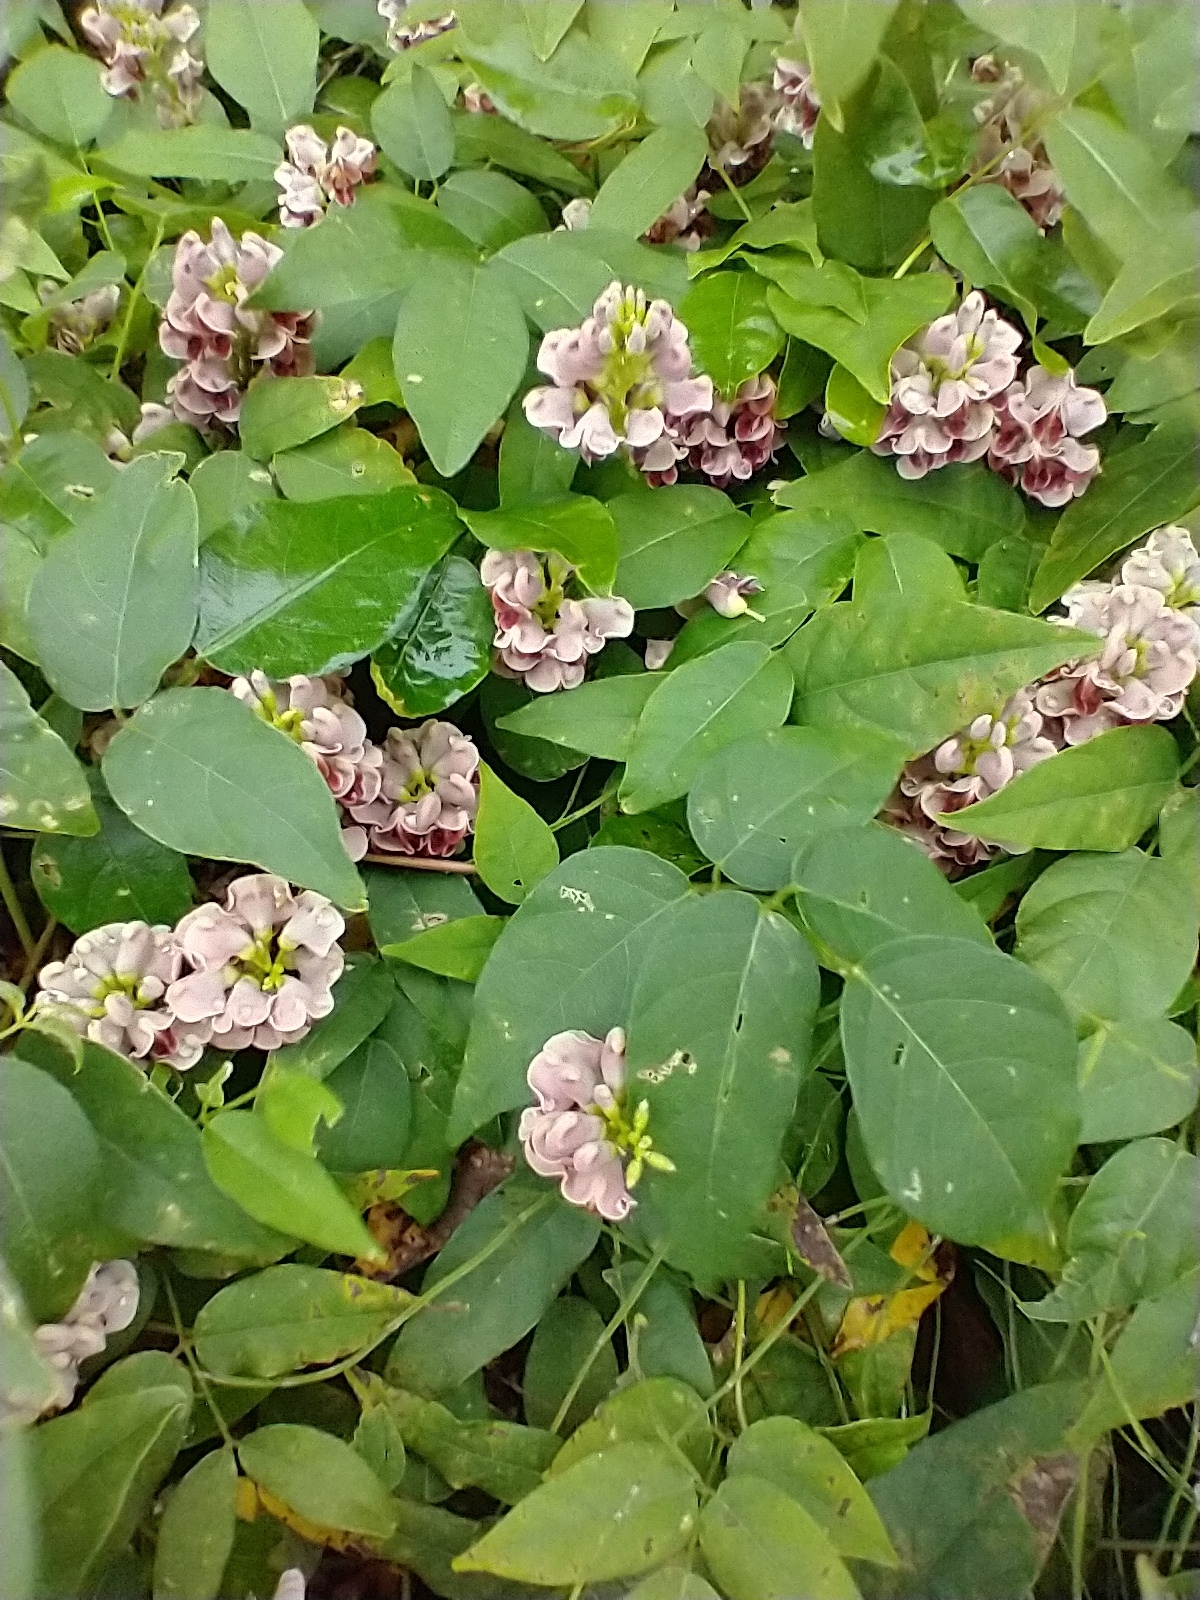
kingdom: Plantae
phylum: Tracheophyta
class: Magnoliopsida
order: Fabales
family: Fabaceae
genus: Apios
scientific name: Apios americana
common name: American potato-bean
